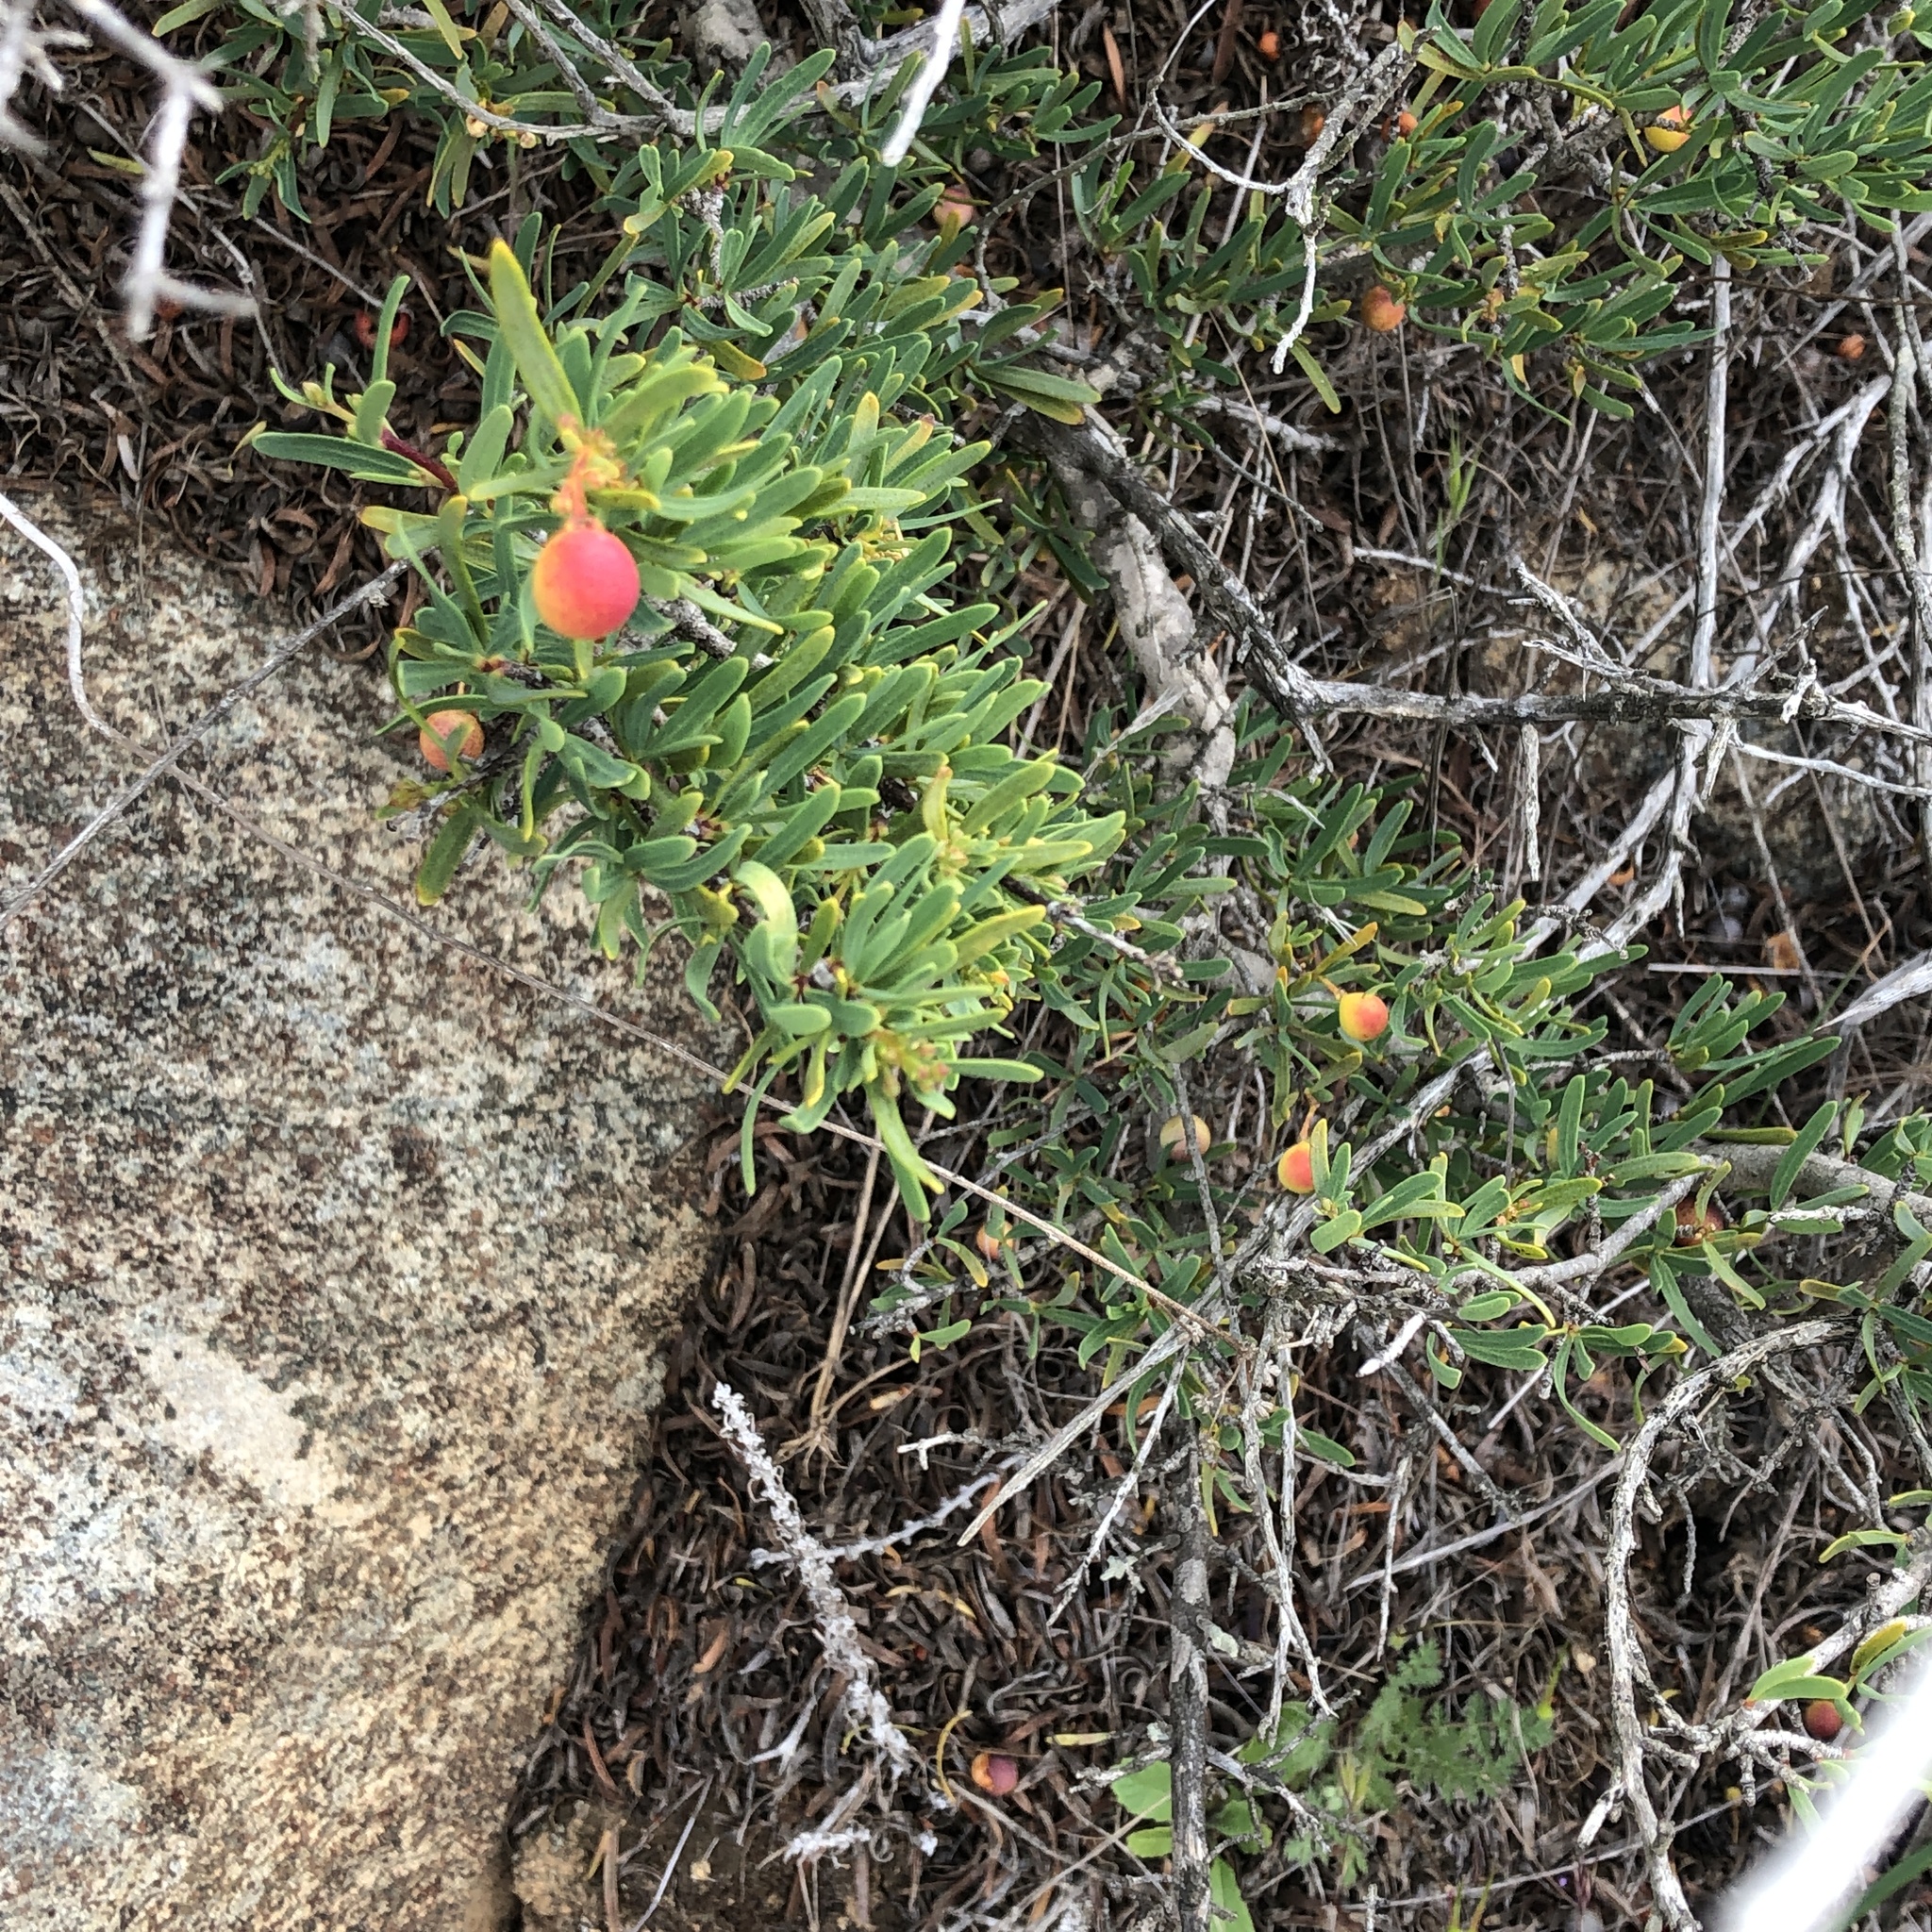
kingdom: Plantae
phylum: Tracheophyta
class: Magnoliopsida
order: Sapindales
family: Rutaceae
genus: Cneoridium
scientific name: Cneoridium dumosum
